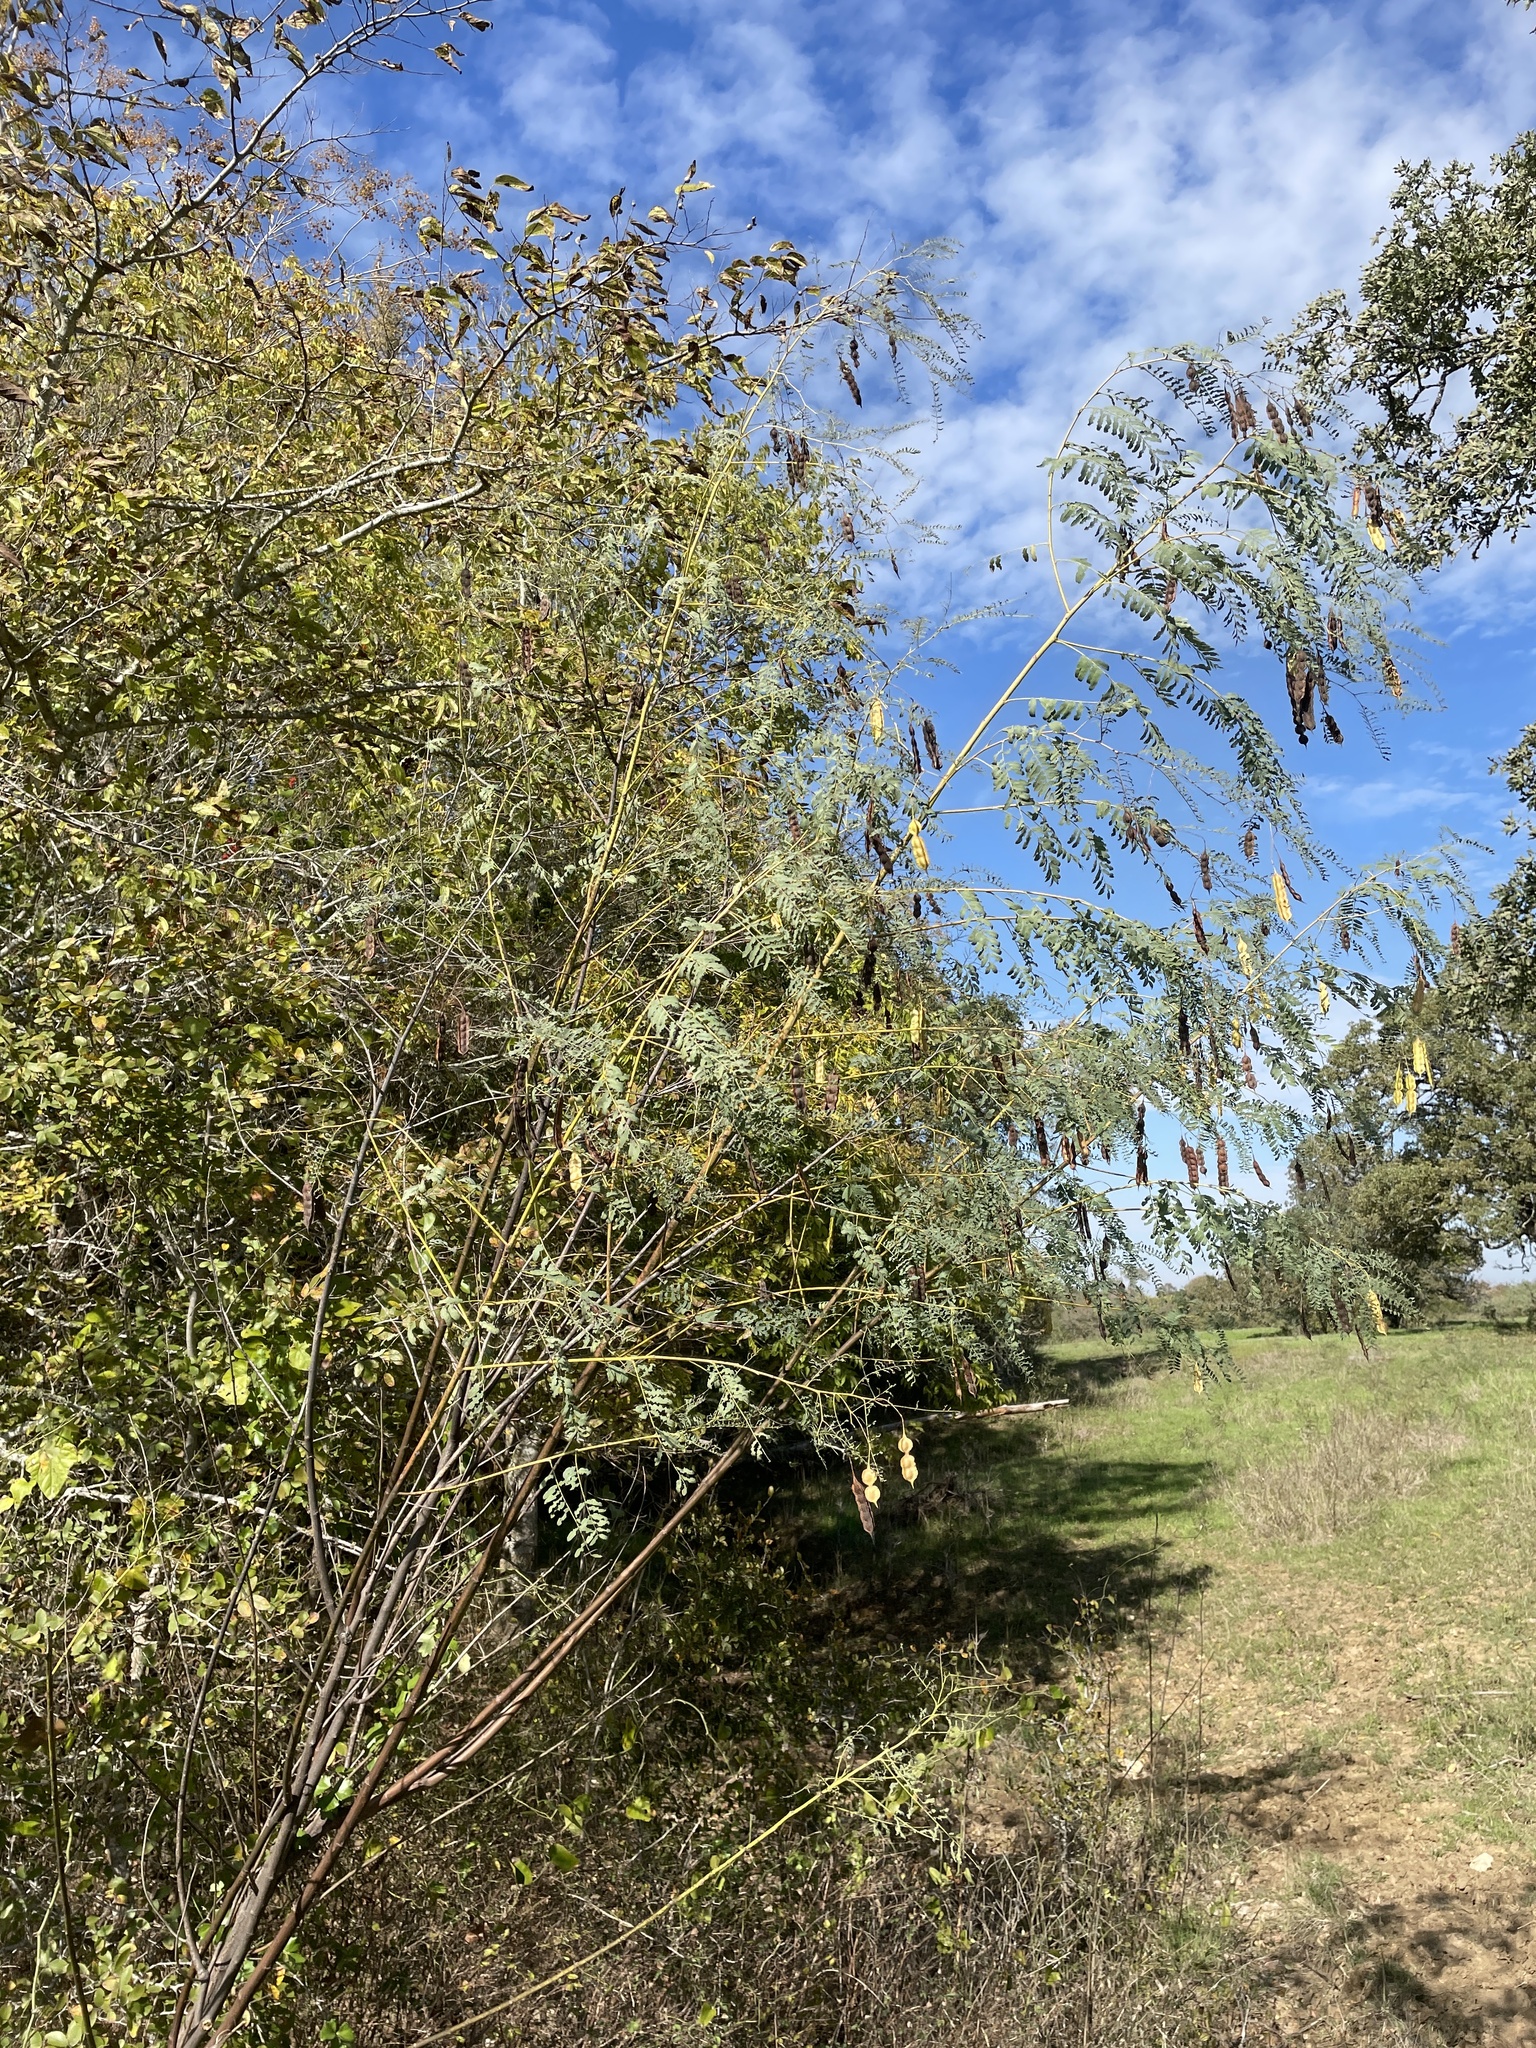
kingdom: Plantae
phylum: Tracheophyta
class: Magnoliopsida
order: Fabales
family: Fabaceae
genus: Sesbania
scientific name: Sesbania drummondii
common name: Poison-bean
